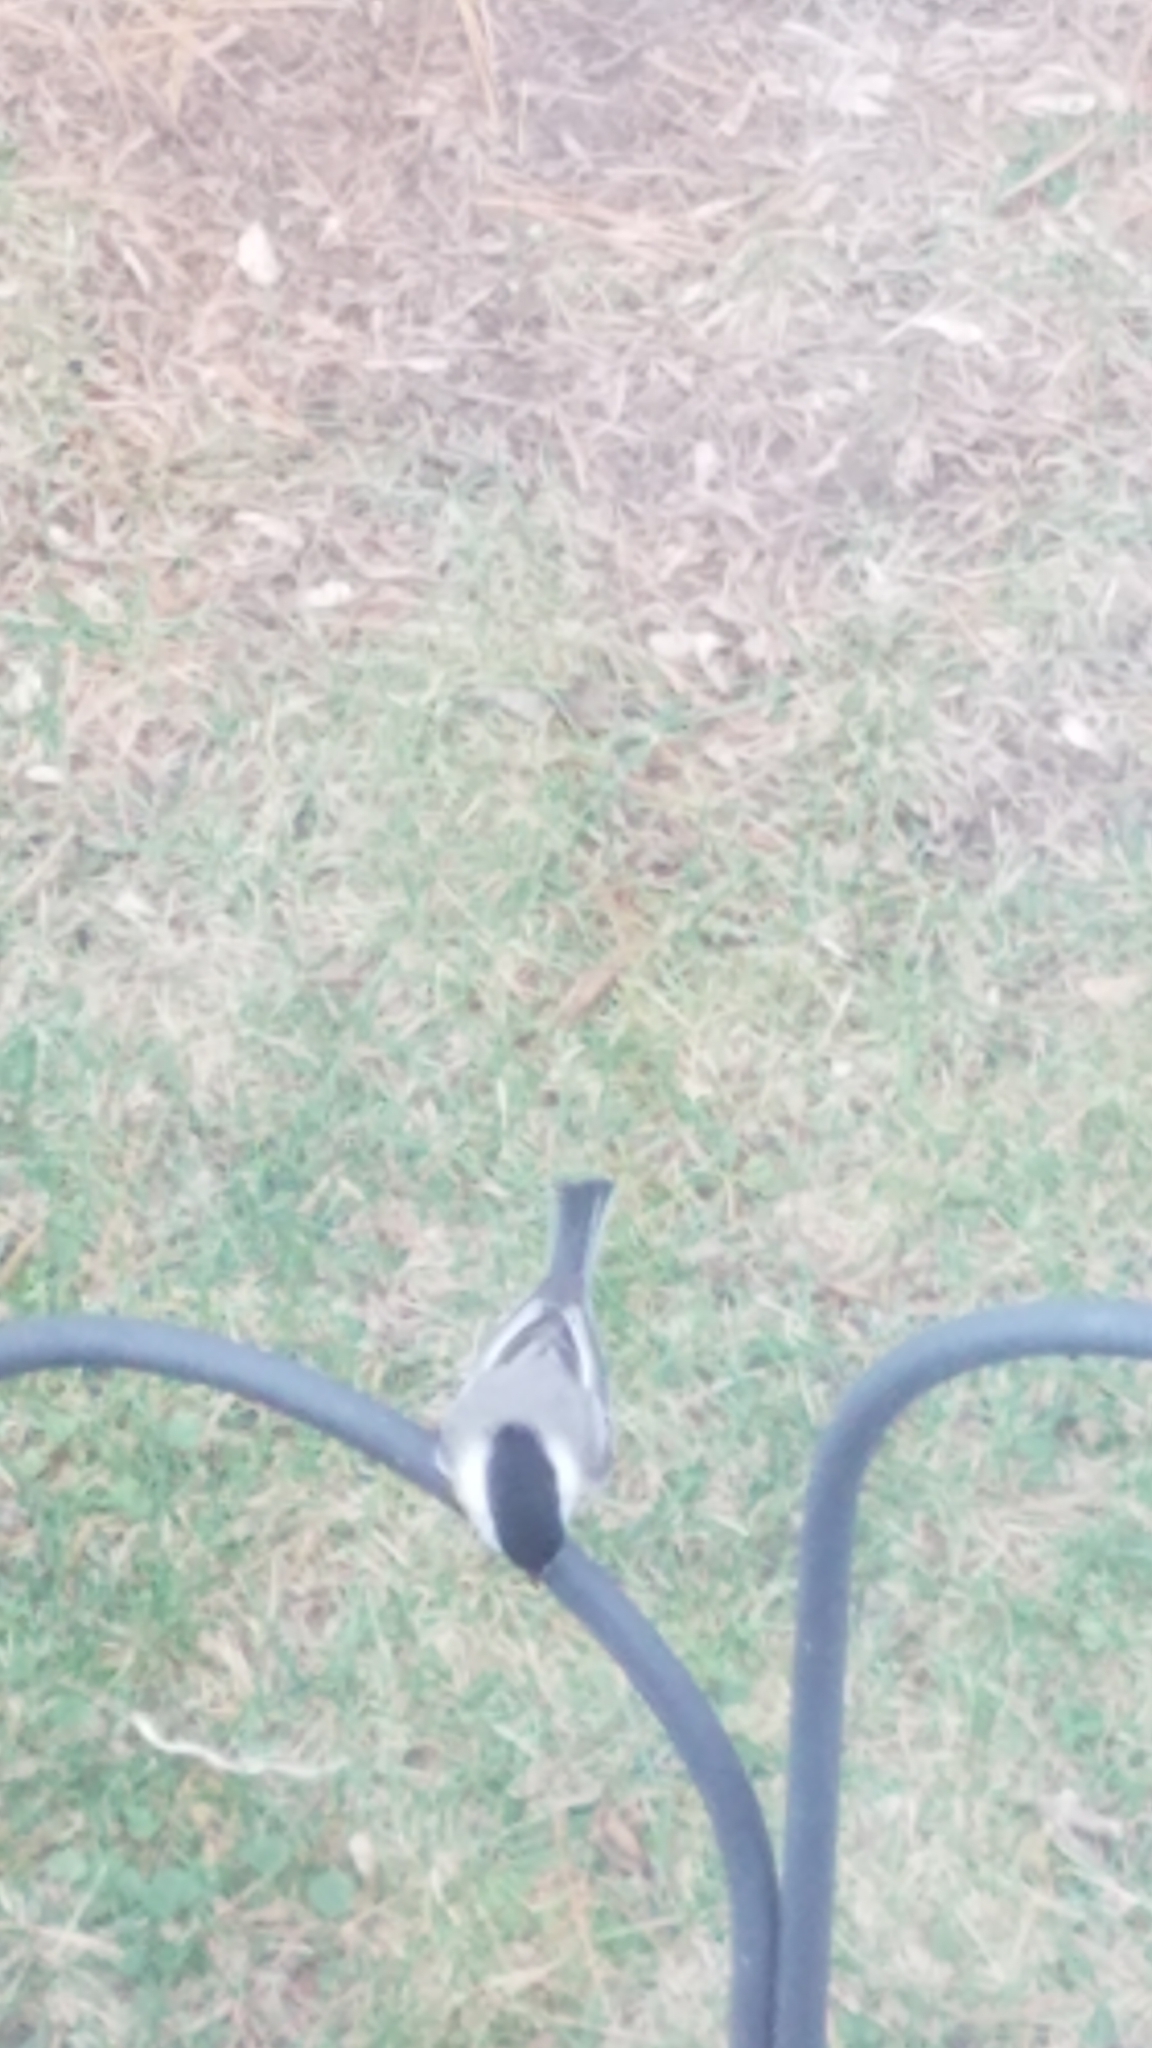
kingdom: Animalia
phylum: Chordata
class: Aves
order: Passeriformes
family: Paridae
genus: Poecile
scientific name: Poecile atricapillus
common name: Black-capped chickadee
